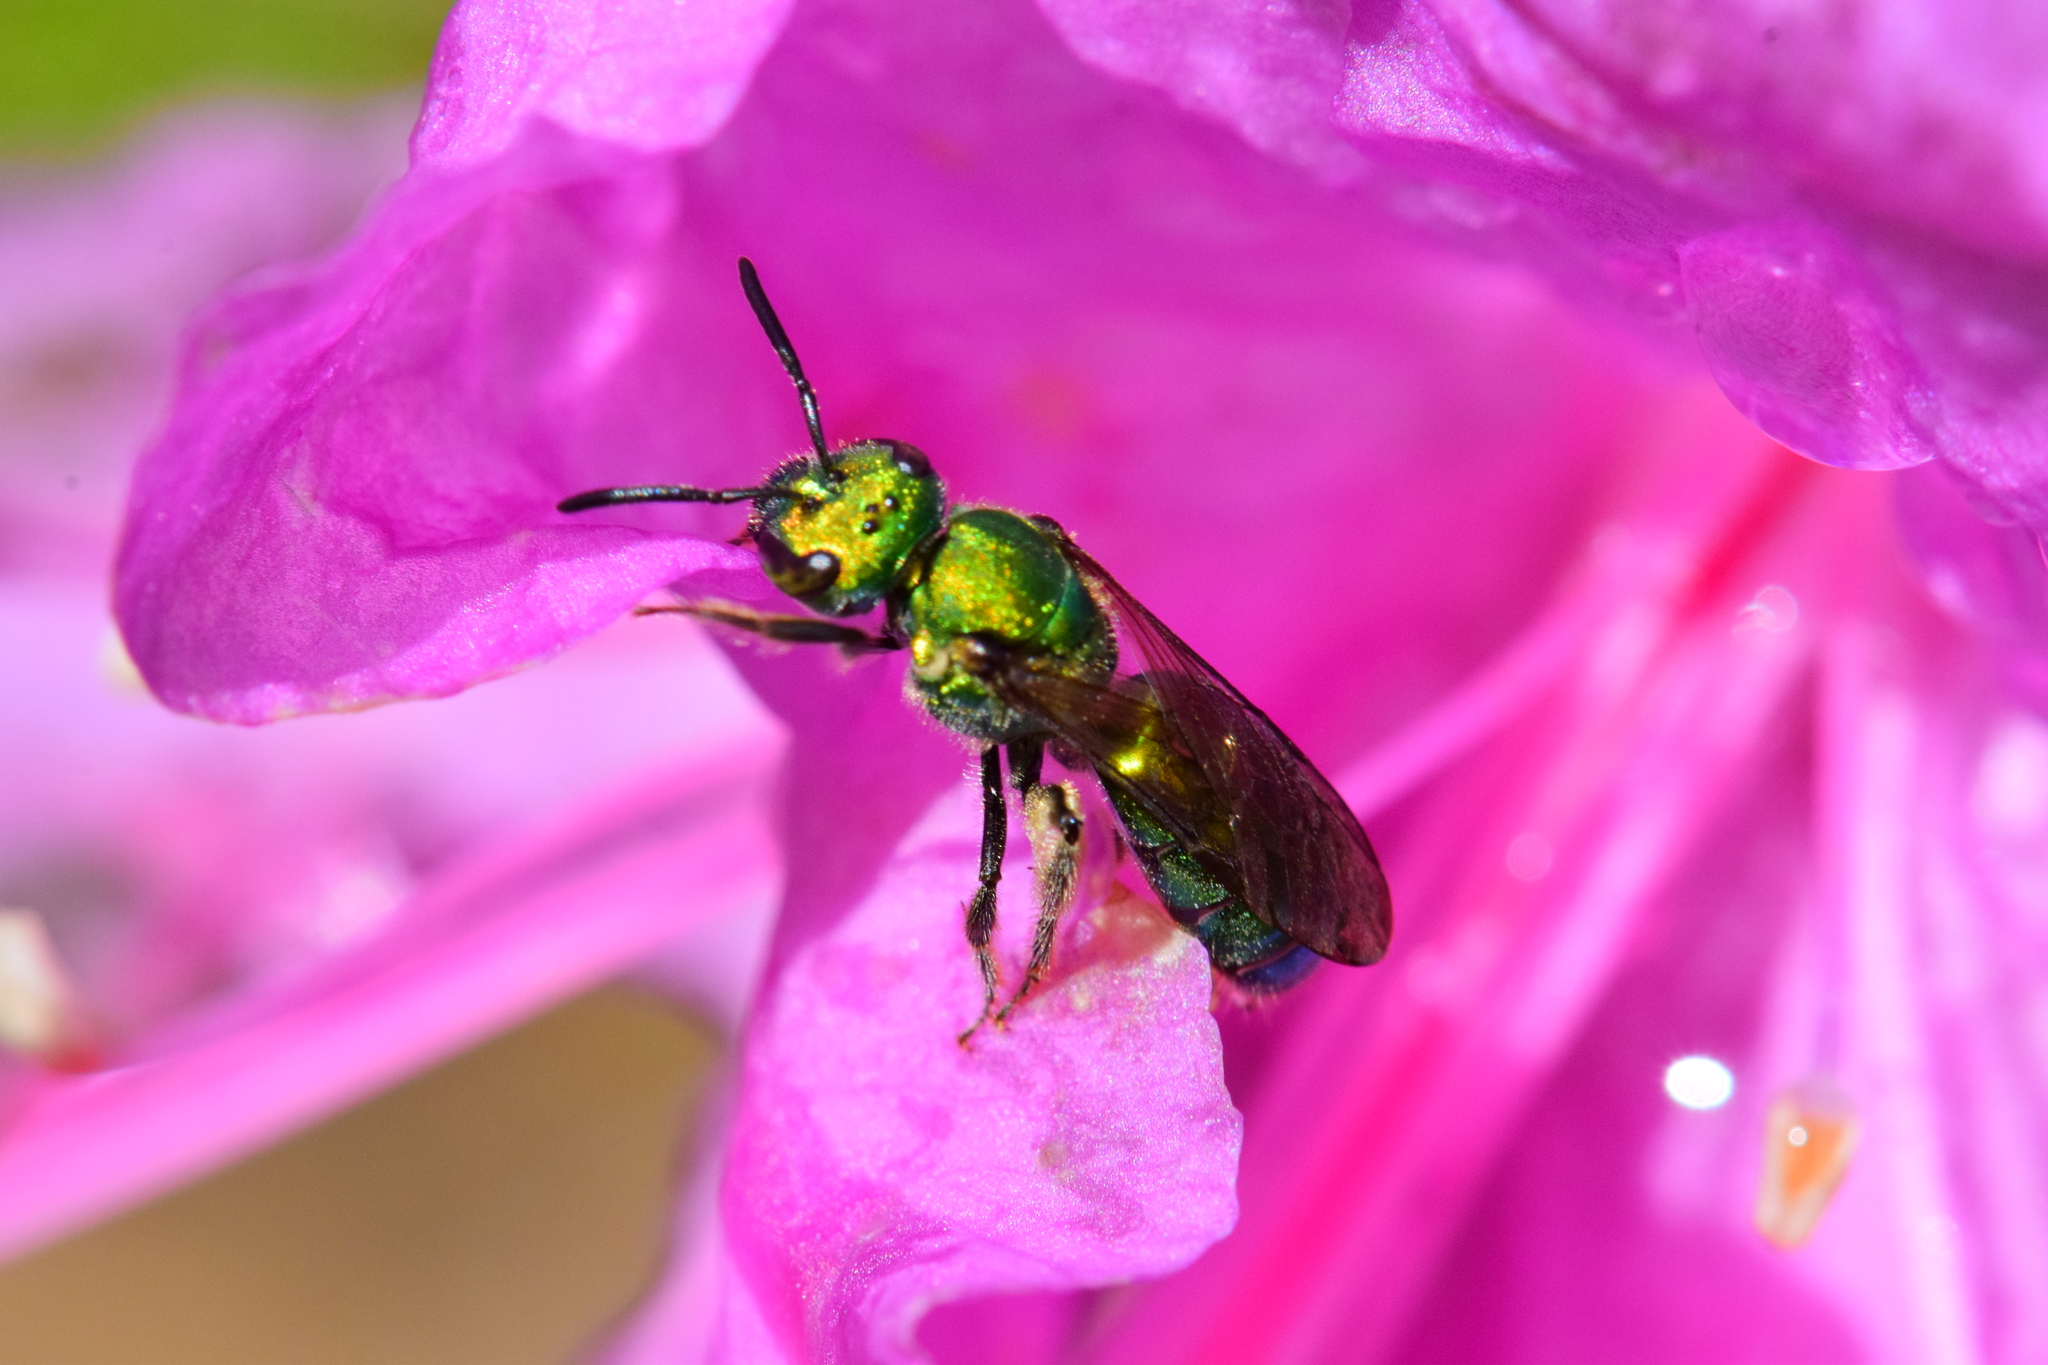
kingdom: Animalia
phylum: Arthropoda
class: Insecta
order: Hymenoptera
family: Halictidae
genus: Augochlora
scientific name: Augochlora pura
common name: Pure green sweat bee
